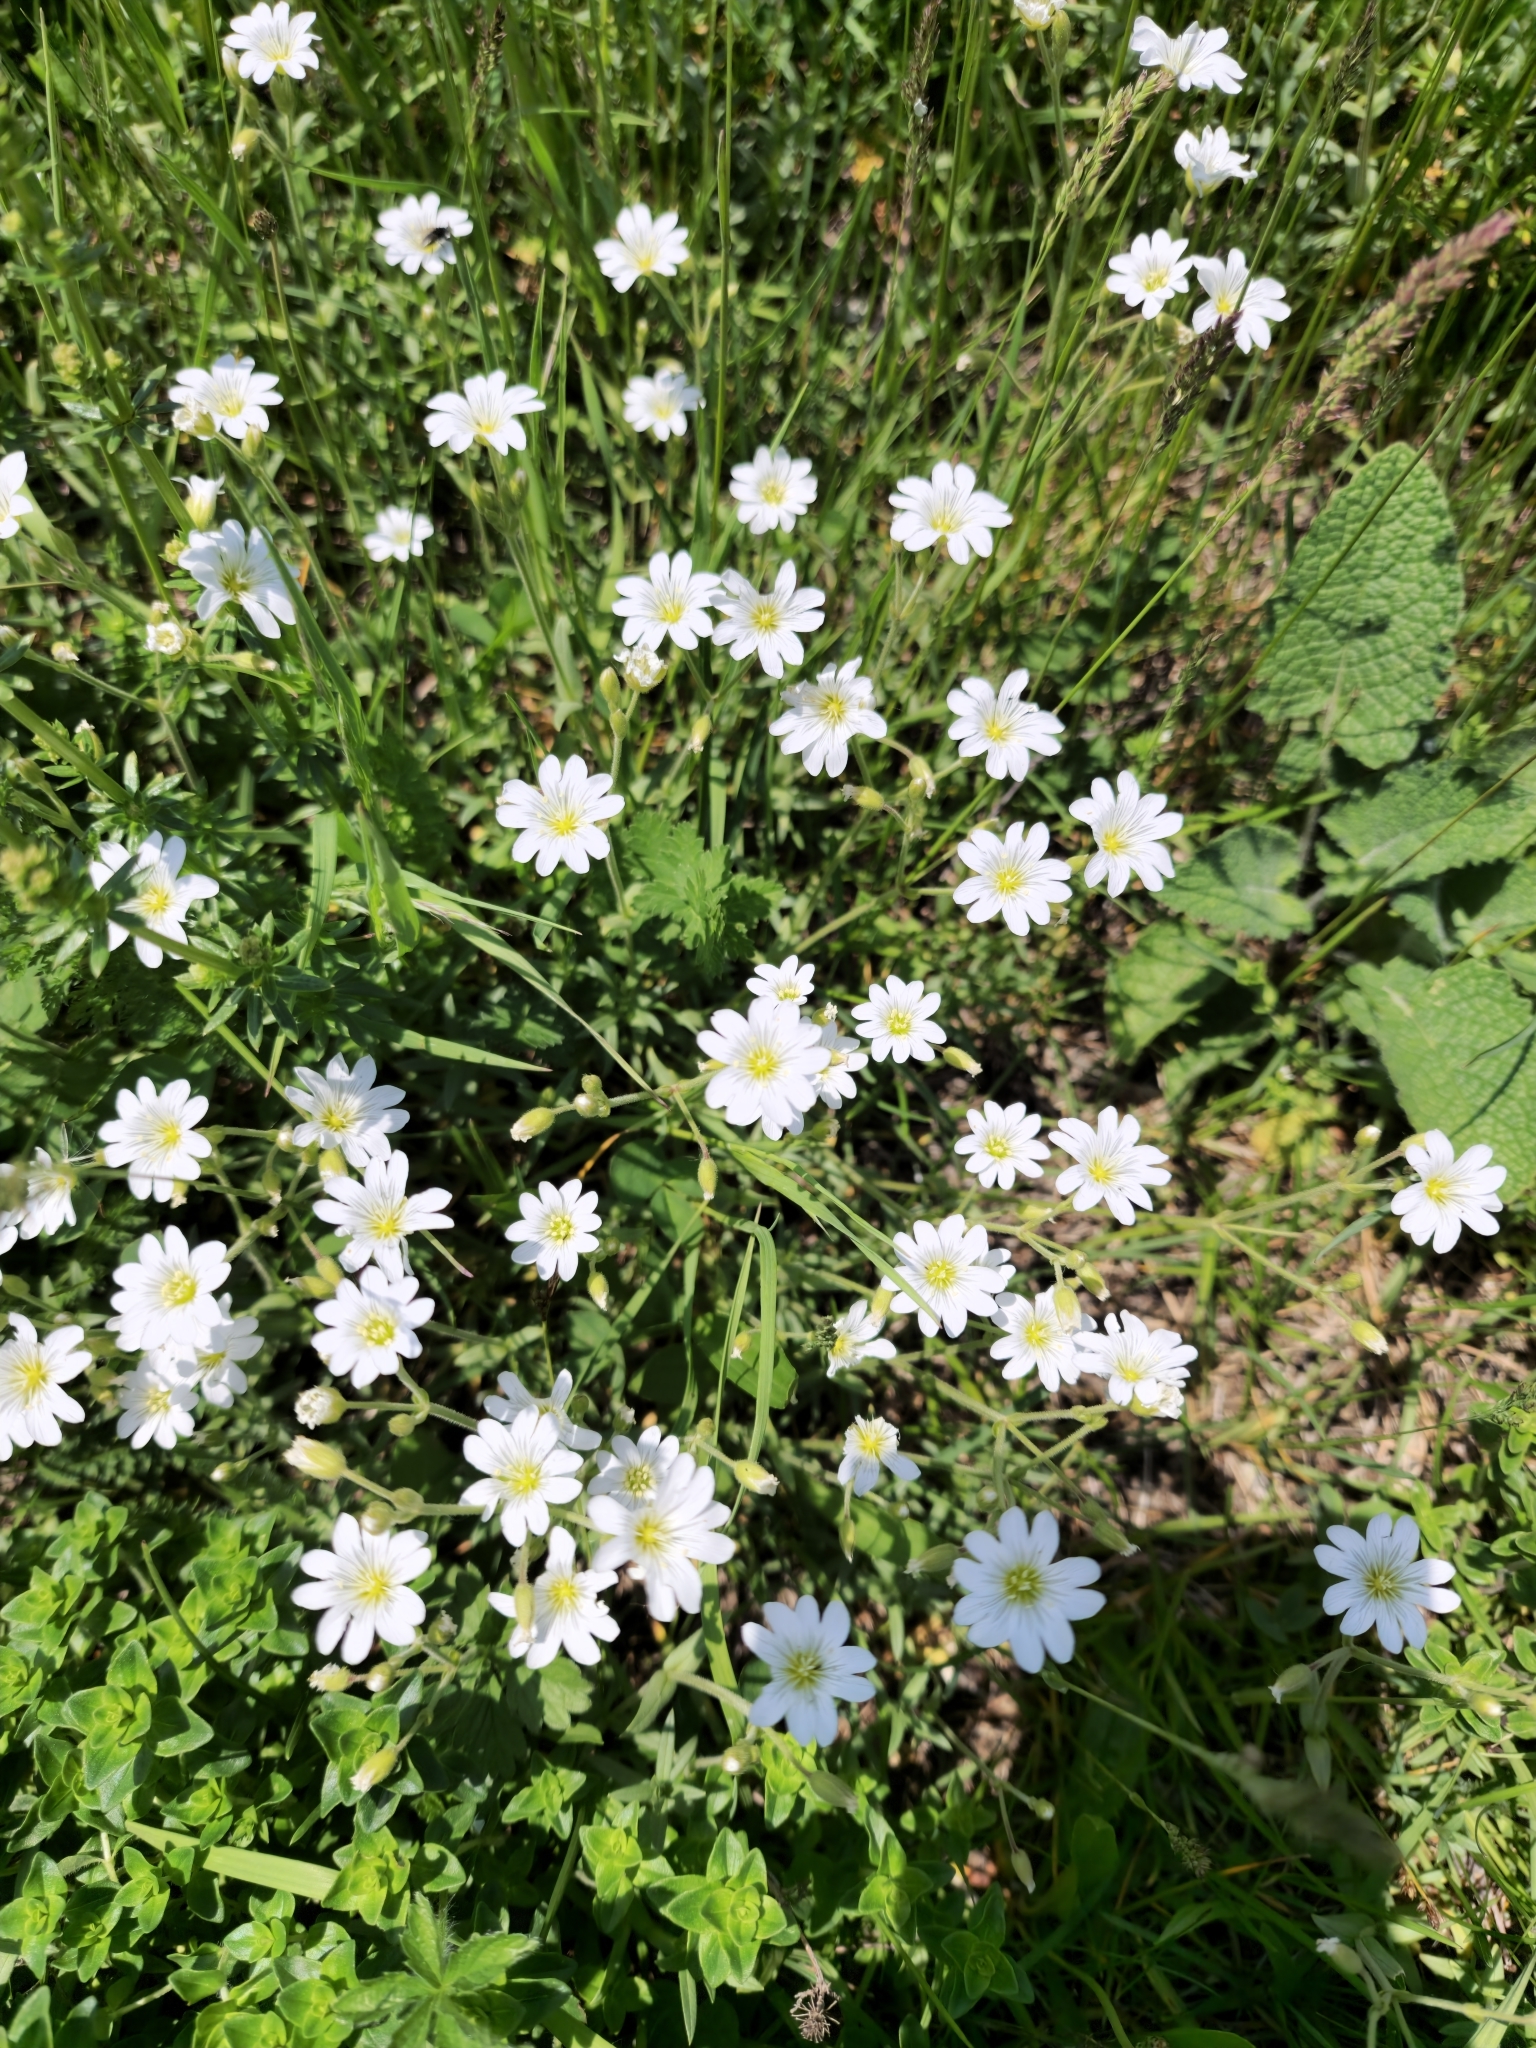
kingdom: Plantae
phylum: Tracheophyta
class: Magnoliopsida
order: Caryophyllales
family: Caryophyllaceae
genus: Cerastium
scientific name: Cerastium arvense
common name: Field mouse-ear
